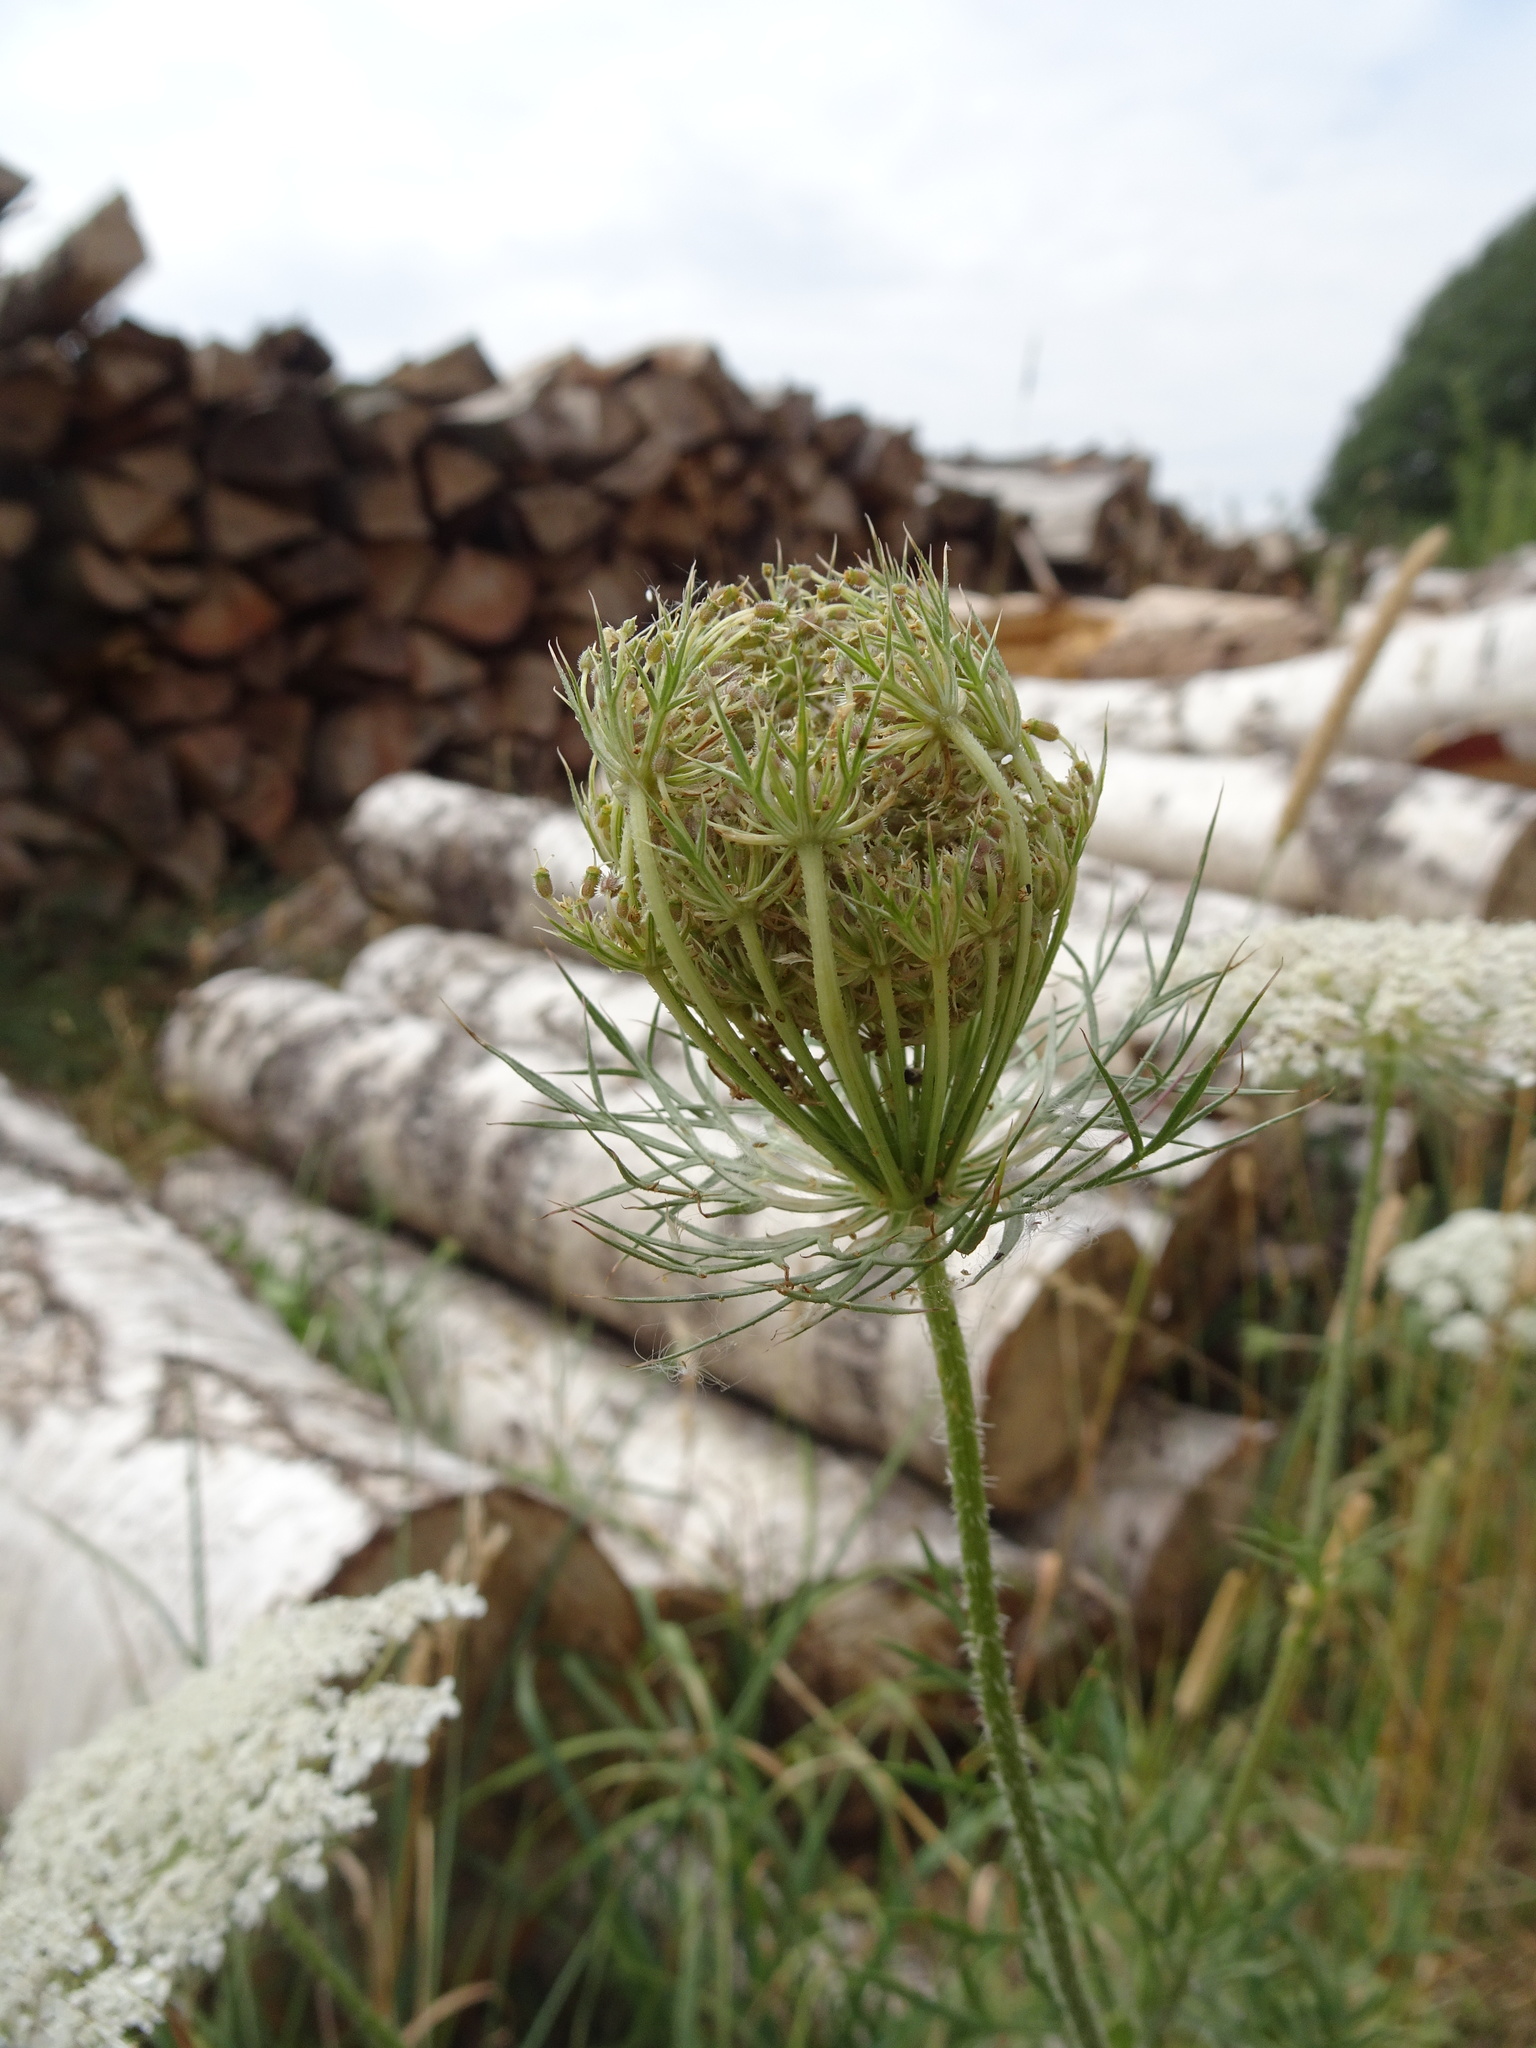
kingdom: Plantae
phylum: Tracheophyta
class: Magnoliopsida
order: Apiales
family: Apiaceae
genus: Daucus
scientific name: Daucus carota
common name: Wild carrot
